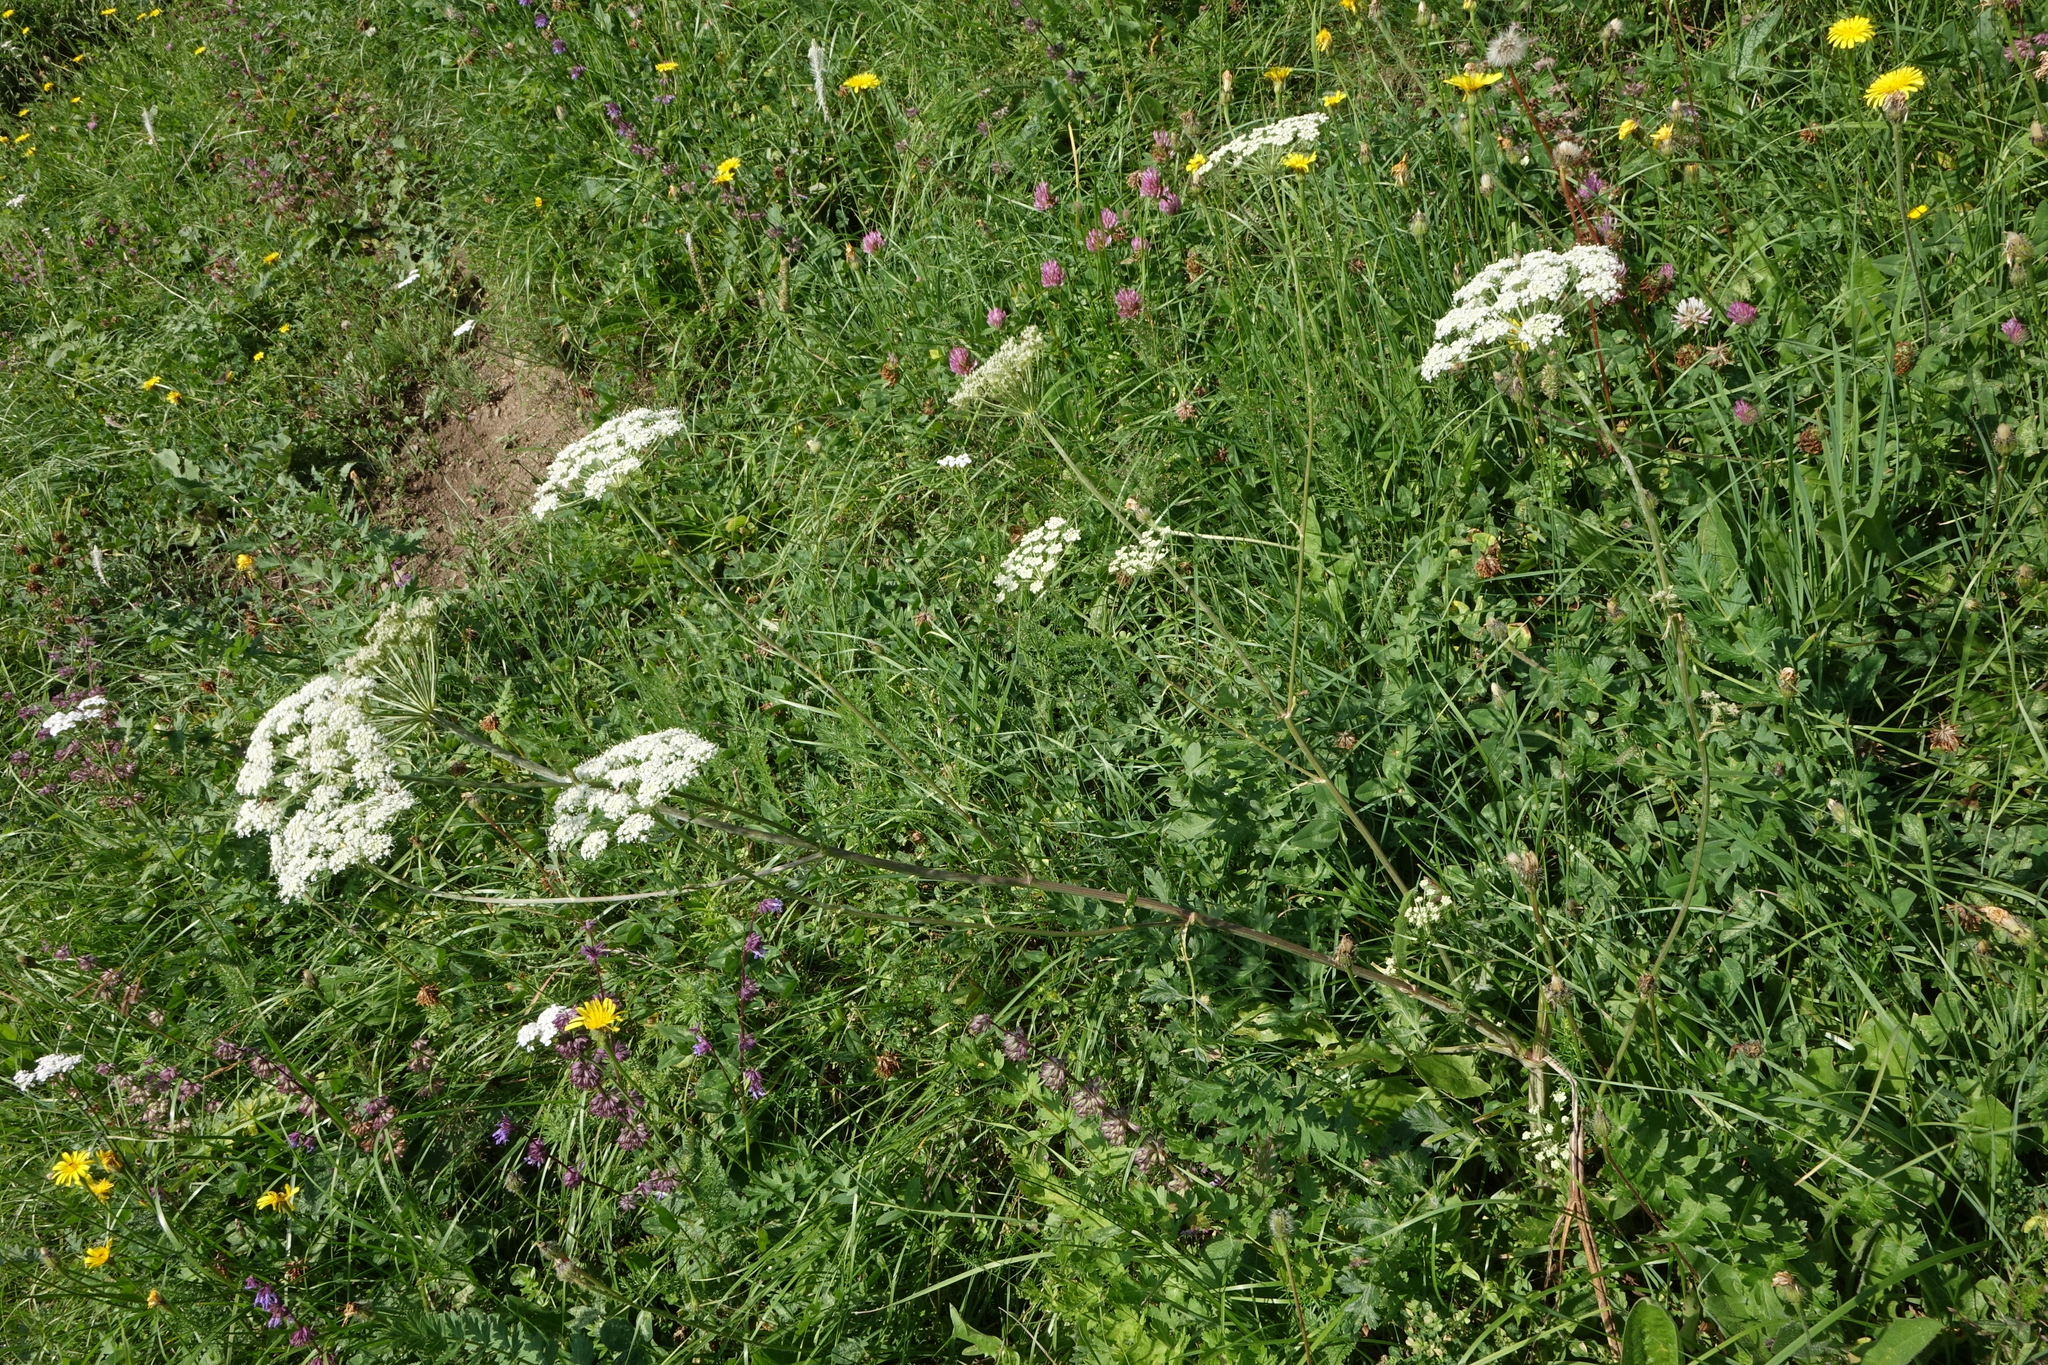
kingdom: Plantae
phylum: Tracheophyta
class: Magnoliopsida
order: Apiales
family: Apiaceae
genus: Seseli
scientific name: Seseli libanotis
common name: Mooncarrot
